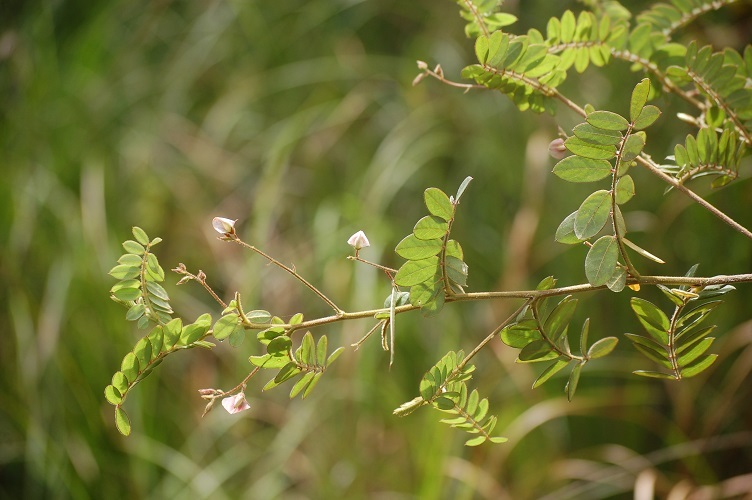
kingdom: Plantae
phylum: Tracheophyta
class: Magnoliopsida
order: Fabales
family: Fabaceae
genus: Aeschynomene
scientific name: Aeschynomene americana
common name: Joint-vetch
